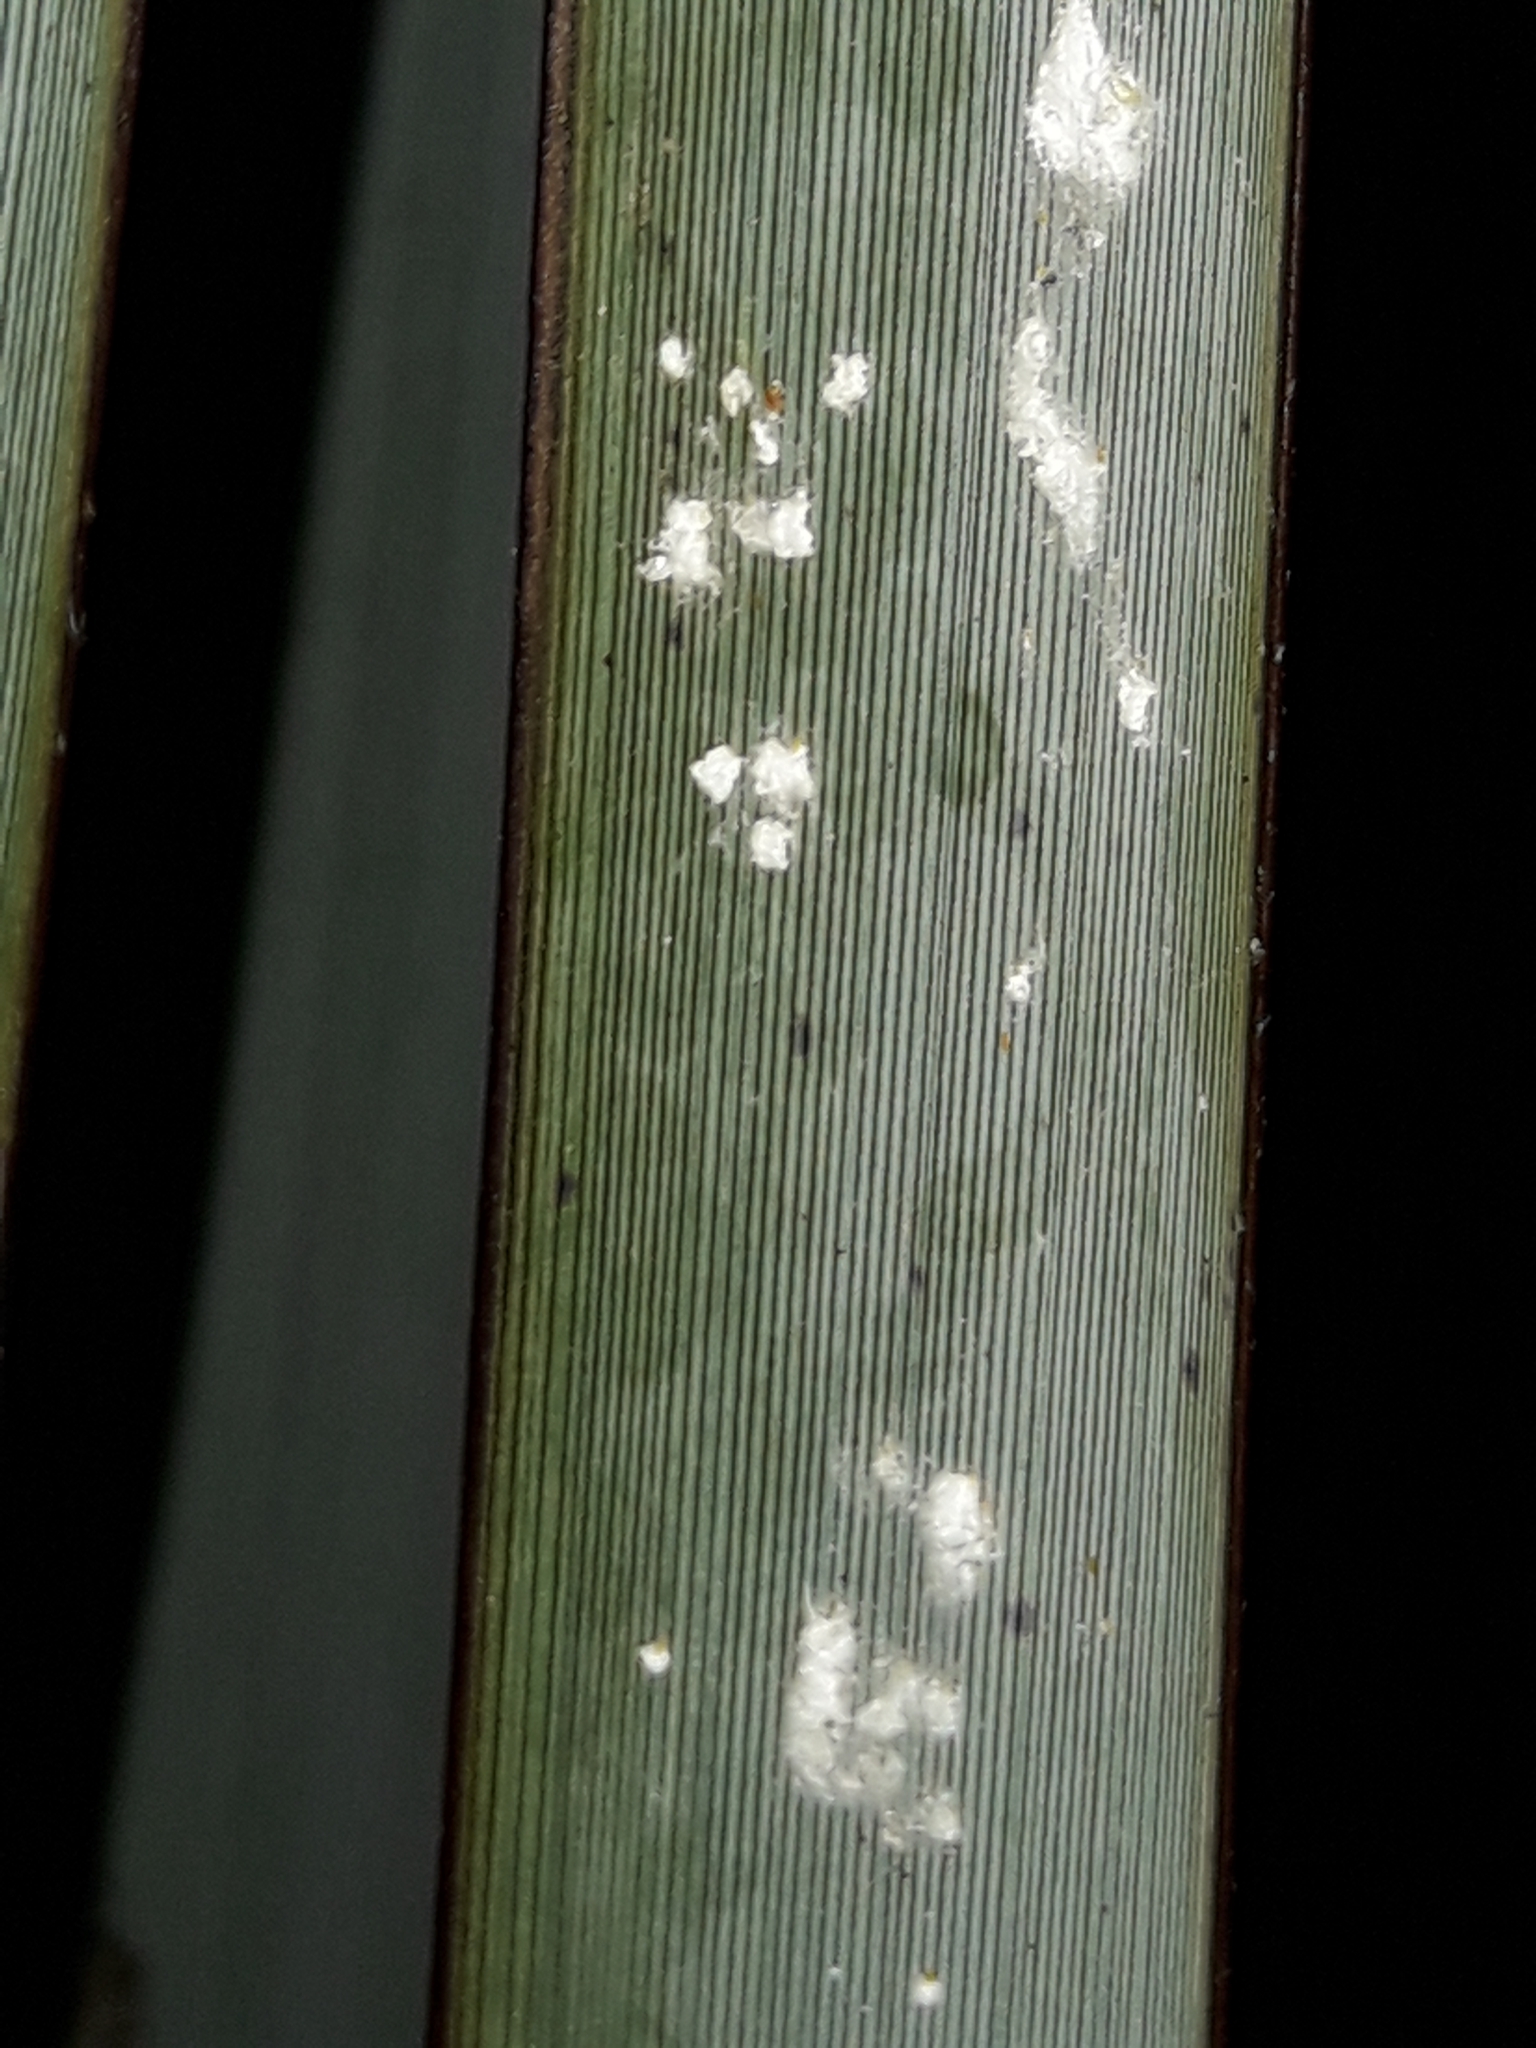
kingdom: Animalia
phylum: Arthropoda
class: Insecta
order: Hemiptera
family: Diaspididae
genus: Poliaspis
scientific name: Poliaspis floccosa
